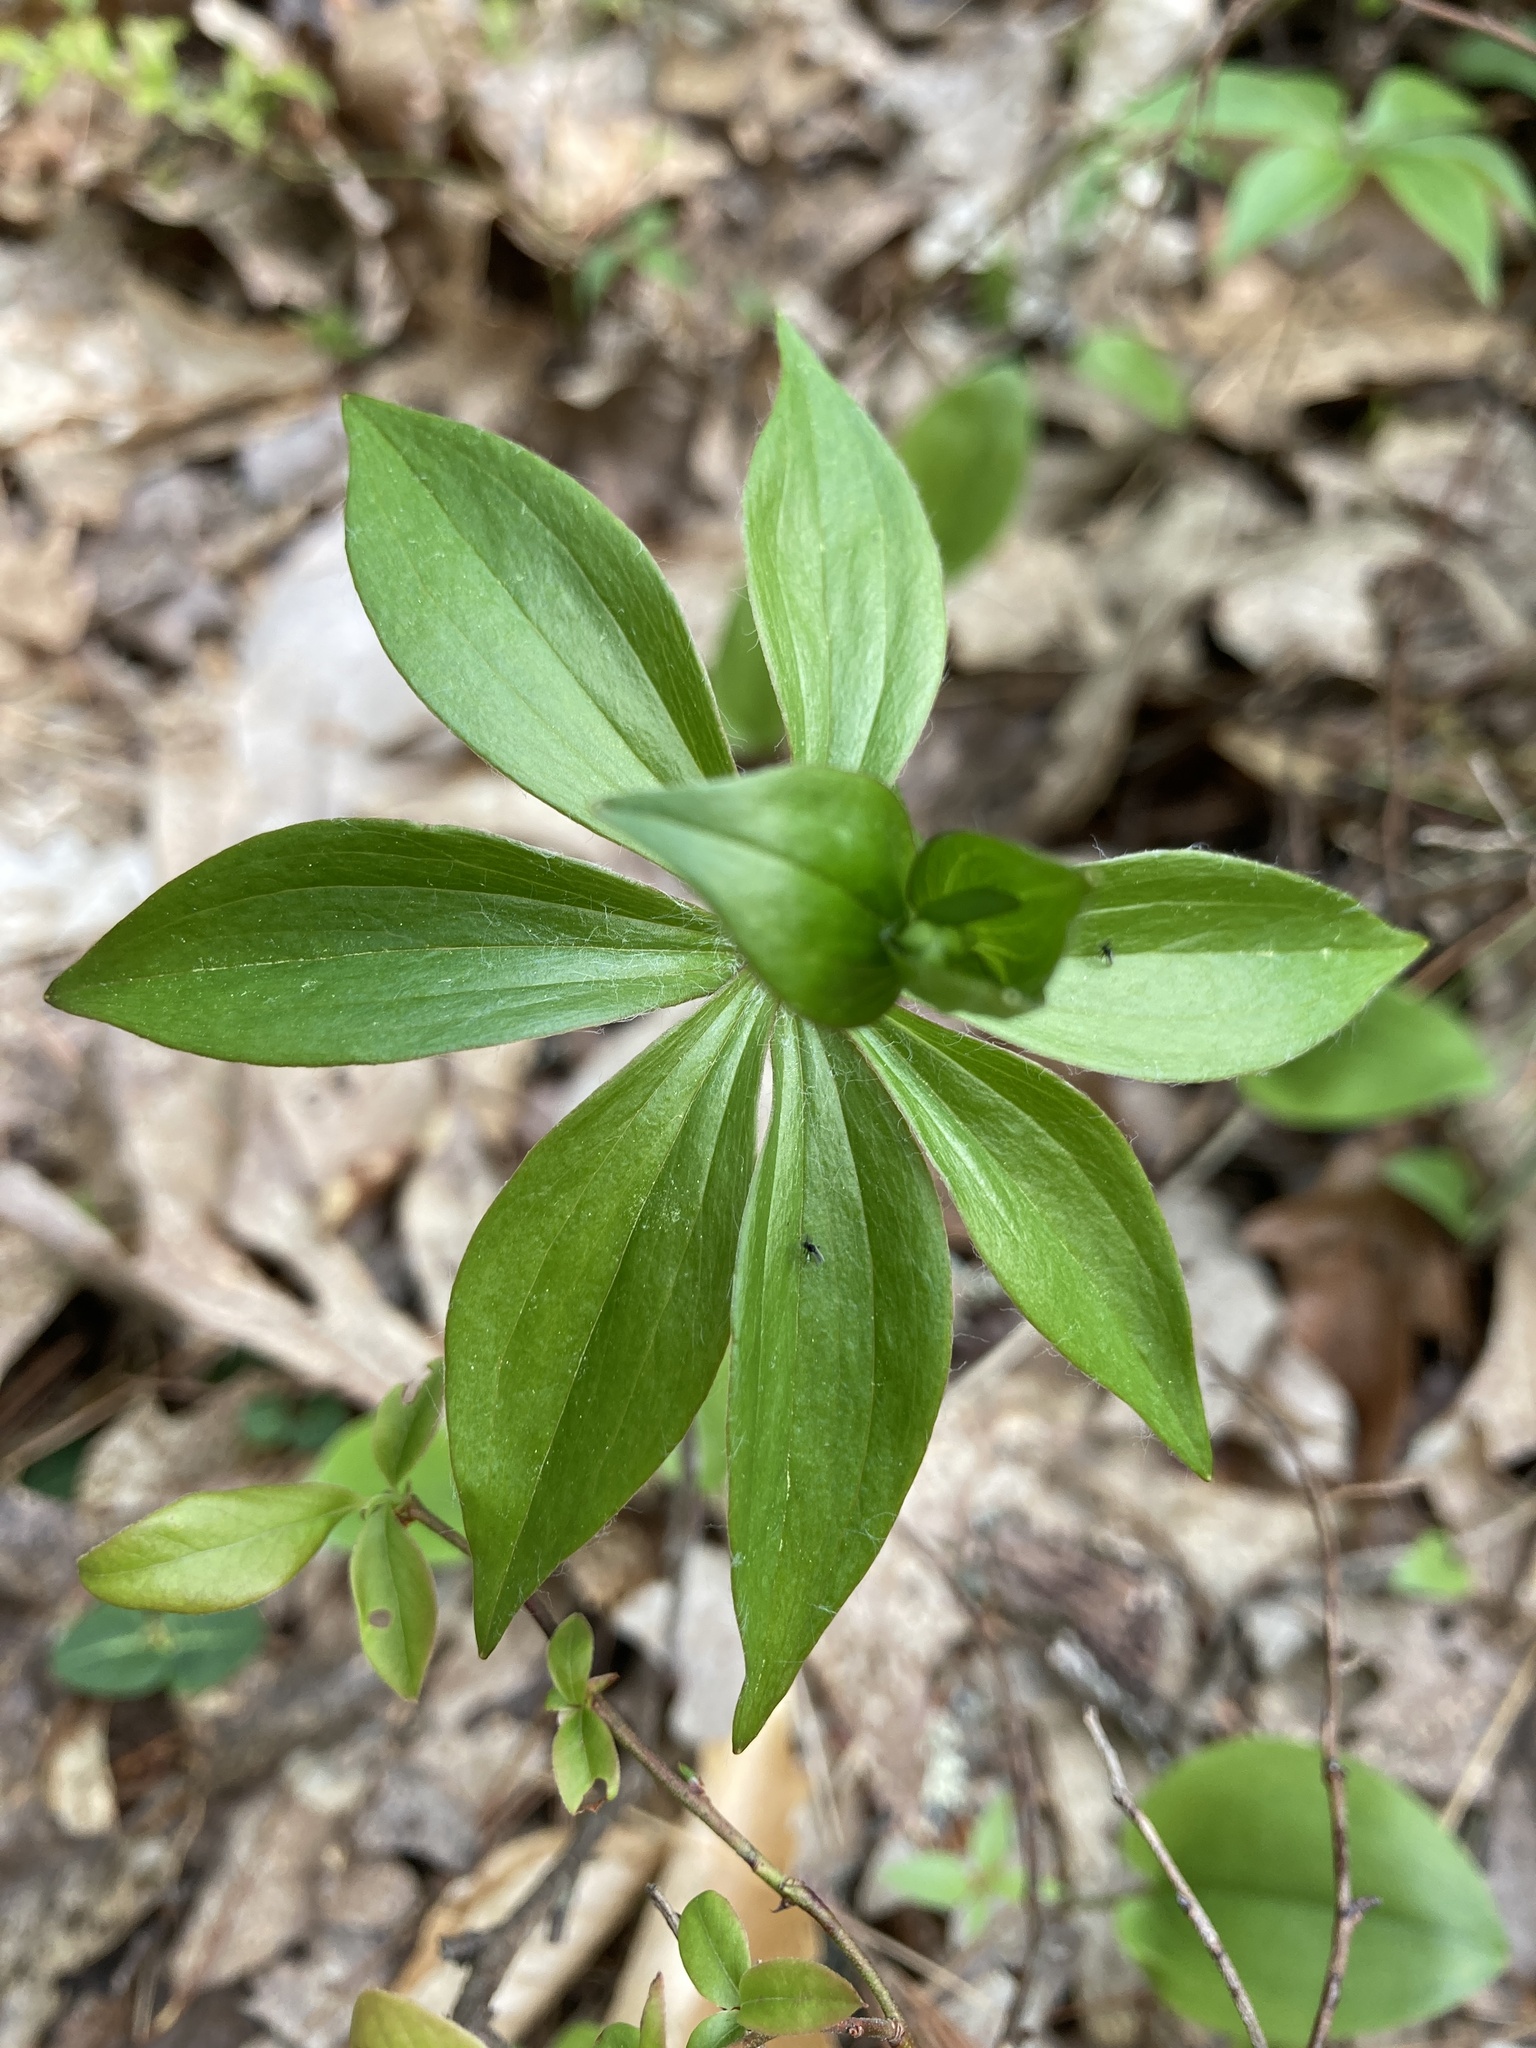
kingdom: Plantae
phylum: Tracheophyta
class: Liliopsida
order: Liliales
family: Liliaceae
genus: Medeola
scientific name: Medeola virginiana
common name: Indian cucumber-root
